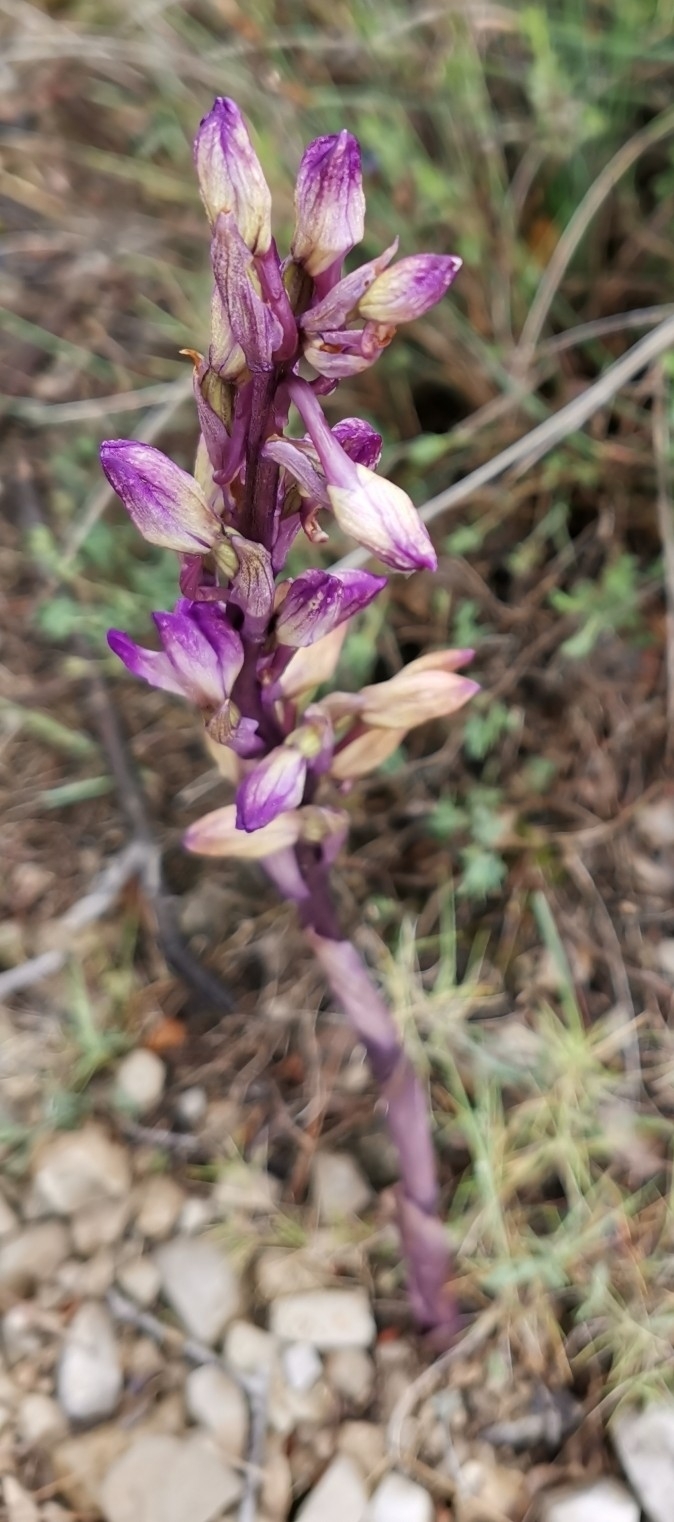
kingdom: Plantae
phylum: Tracheophyta
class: Liliopsida
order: Asparagales
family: Orchidaceae
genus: Limodorum
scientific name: Limodorum abortivum
